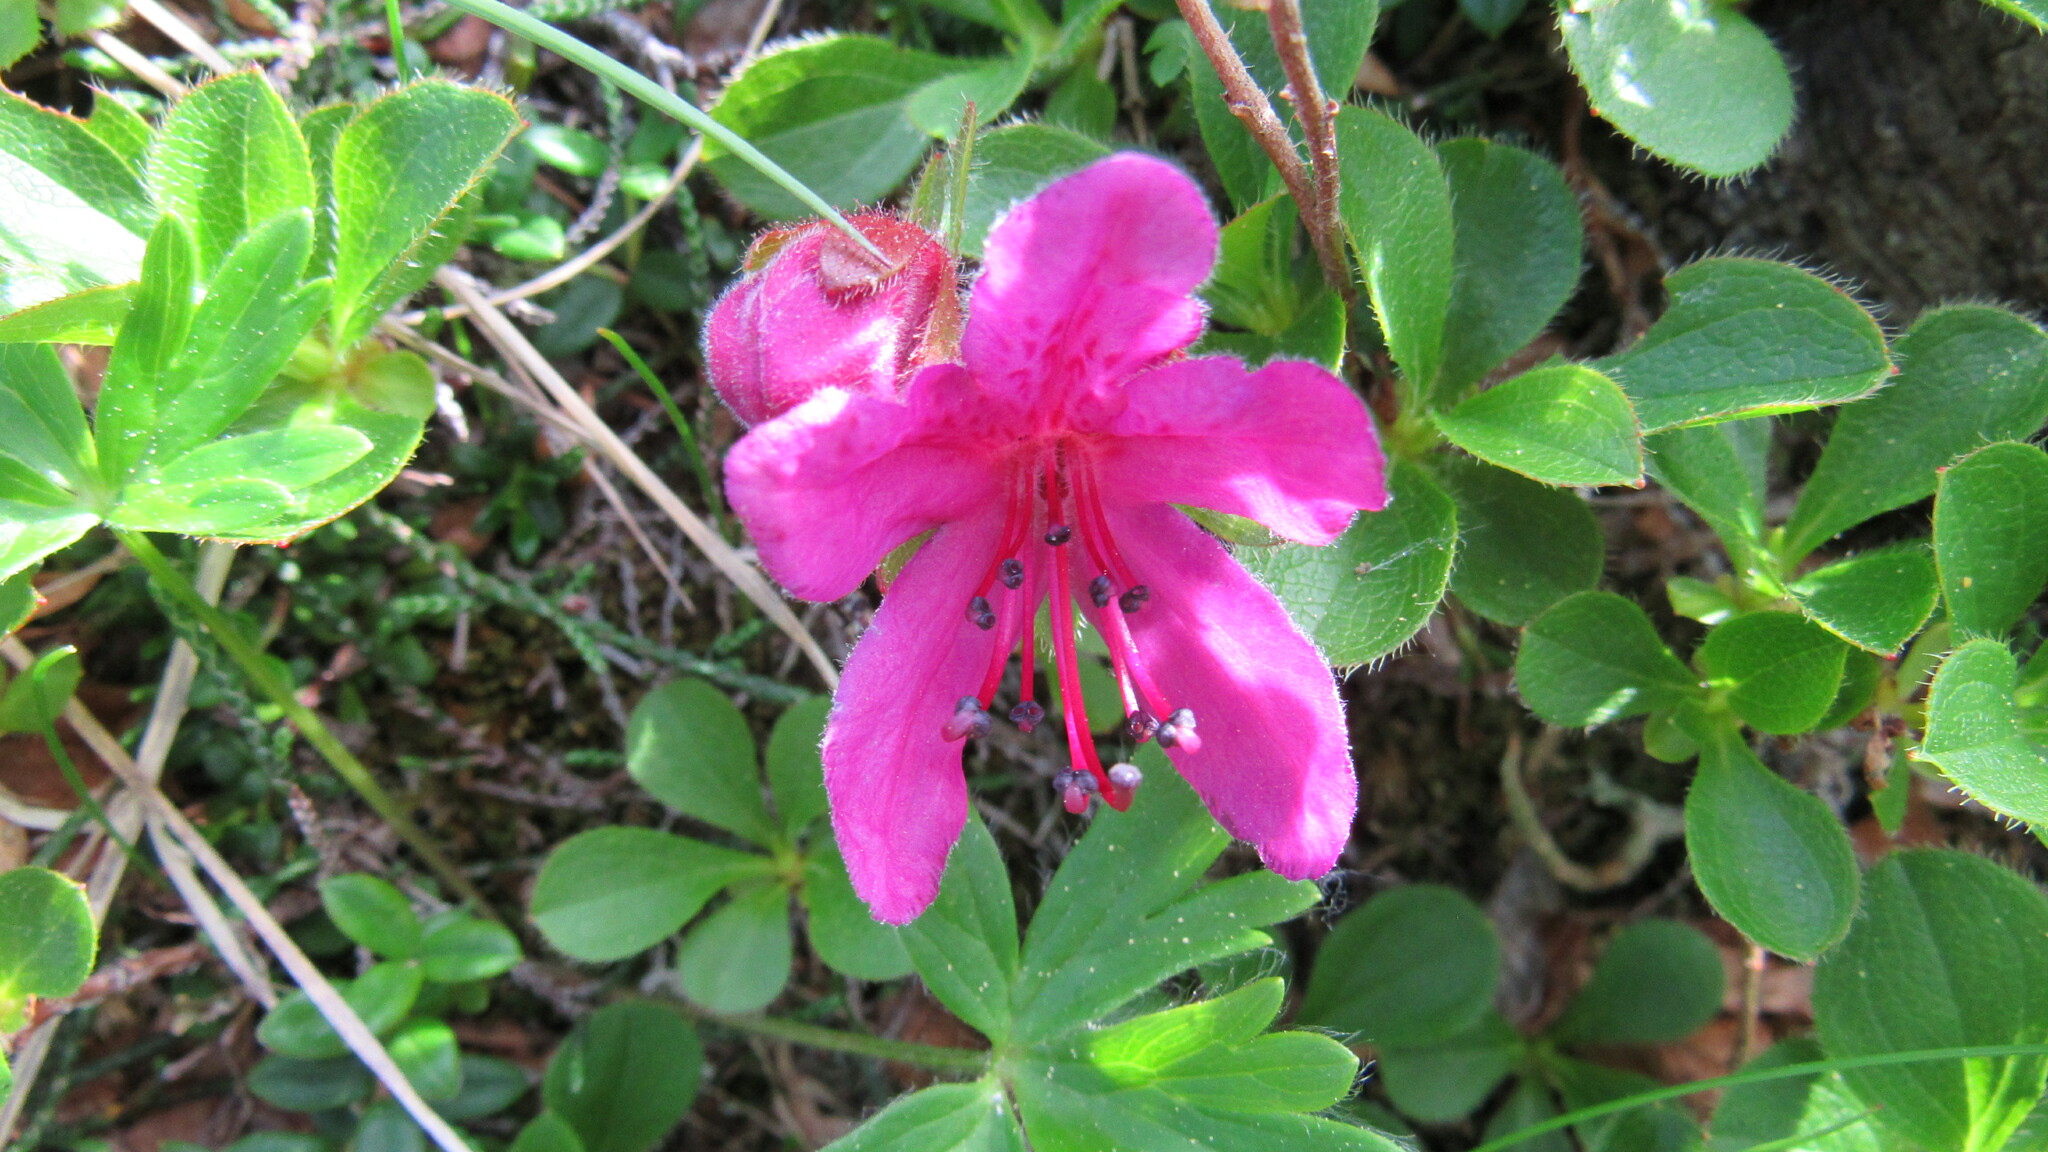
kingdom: Plantae
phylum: Tracheophyta
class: Magnoliopsida
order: Ericales
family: Ericaceae
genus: Rhododendron
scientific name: Rhododendron camtschaticum
